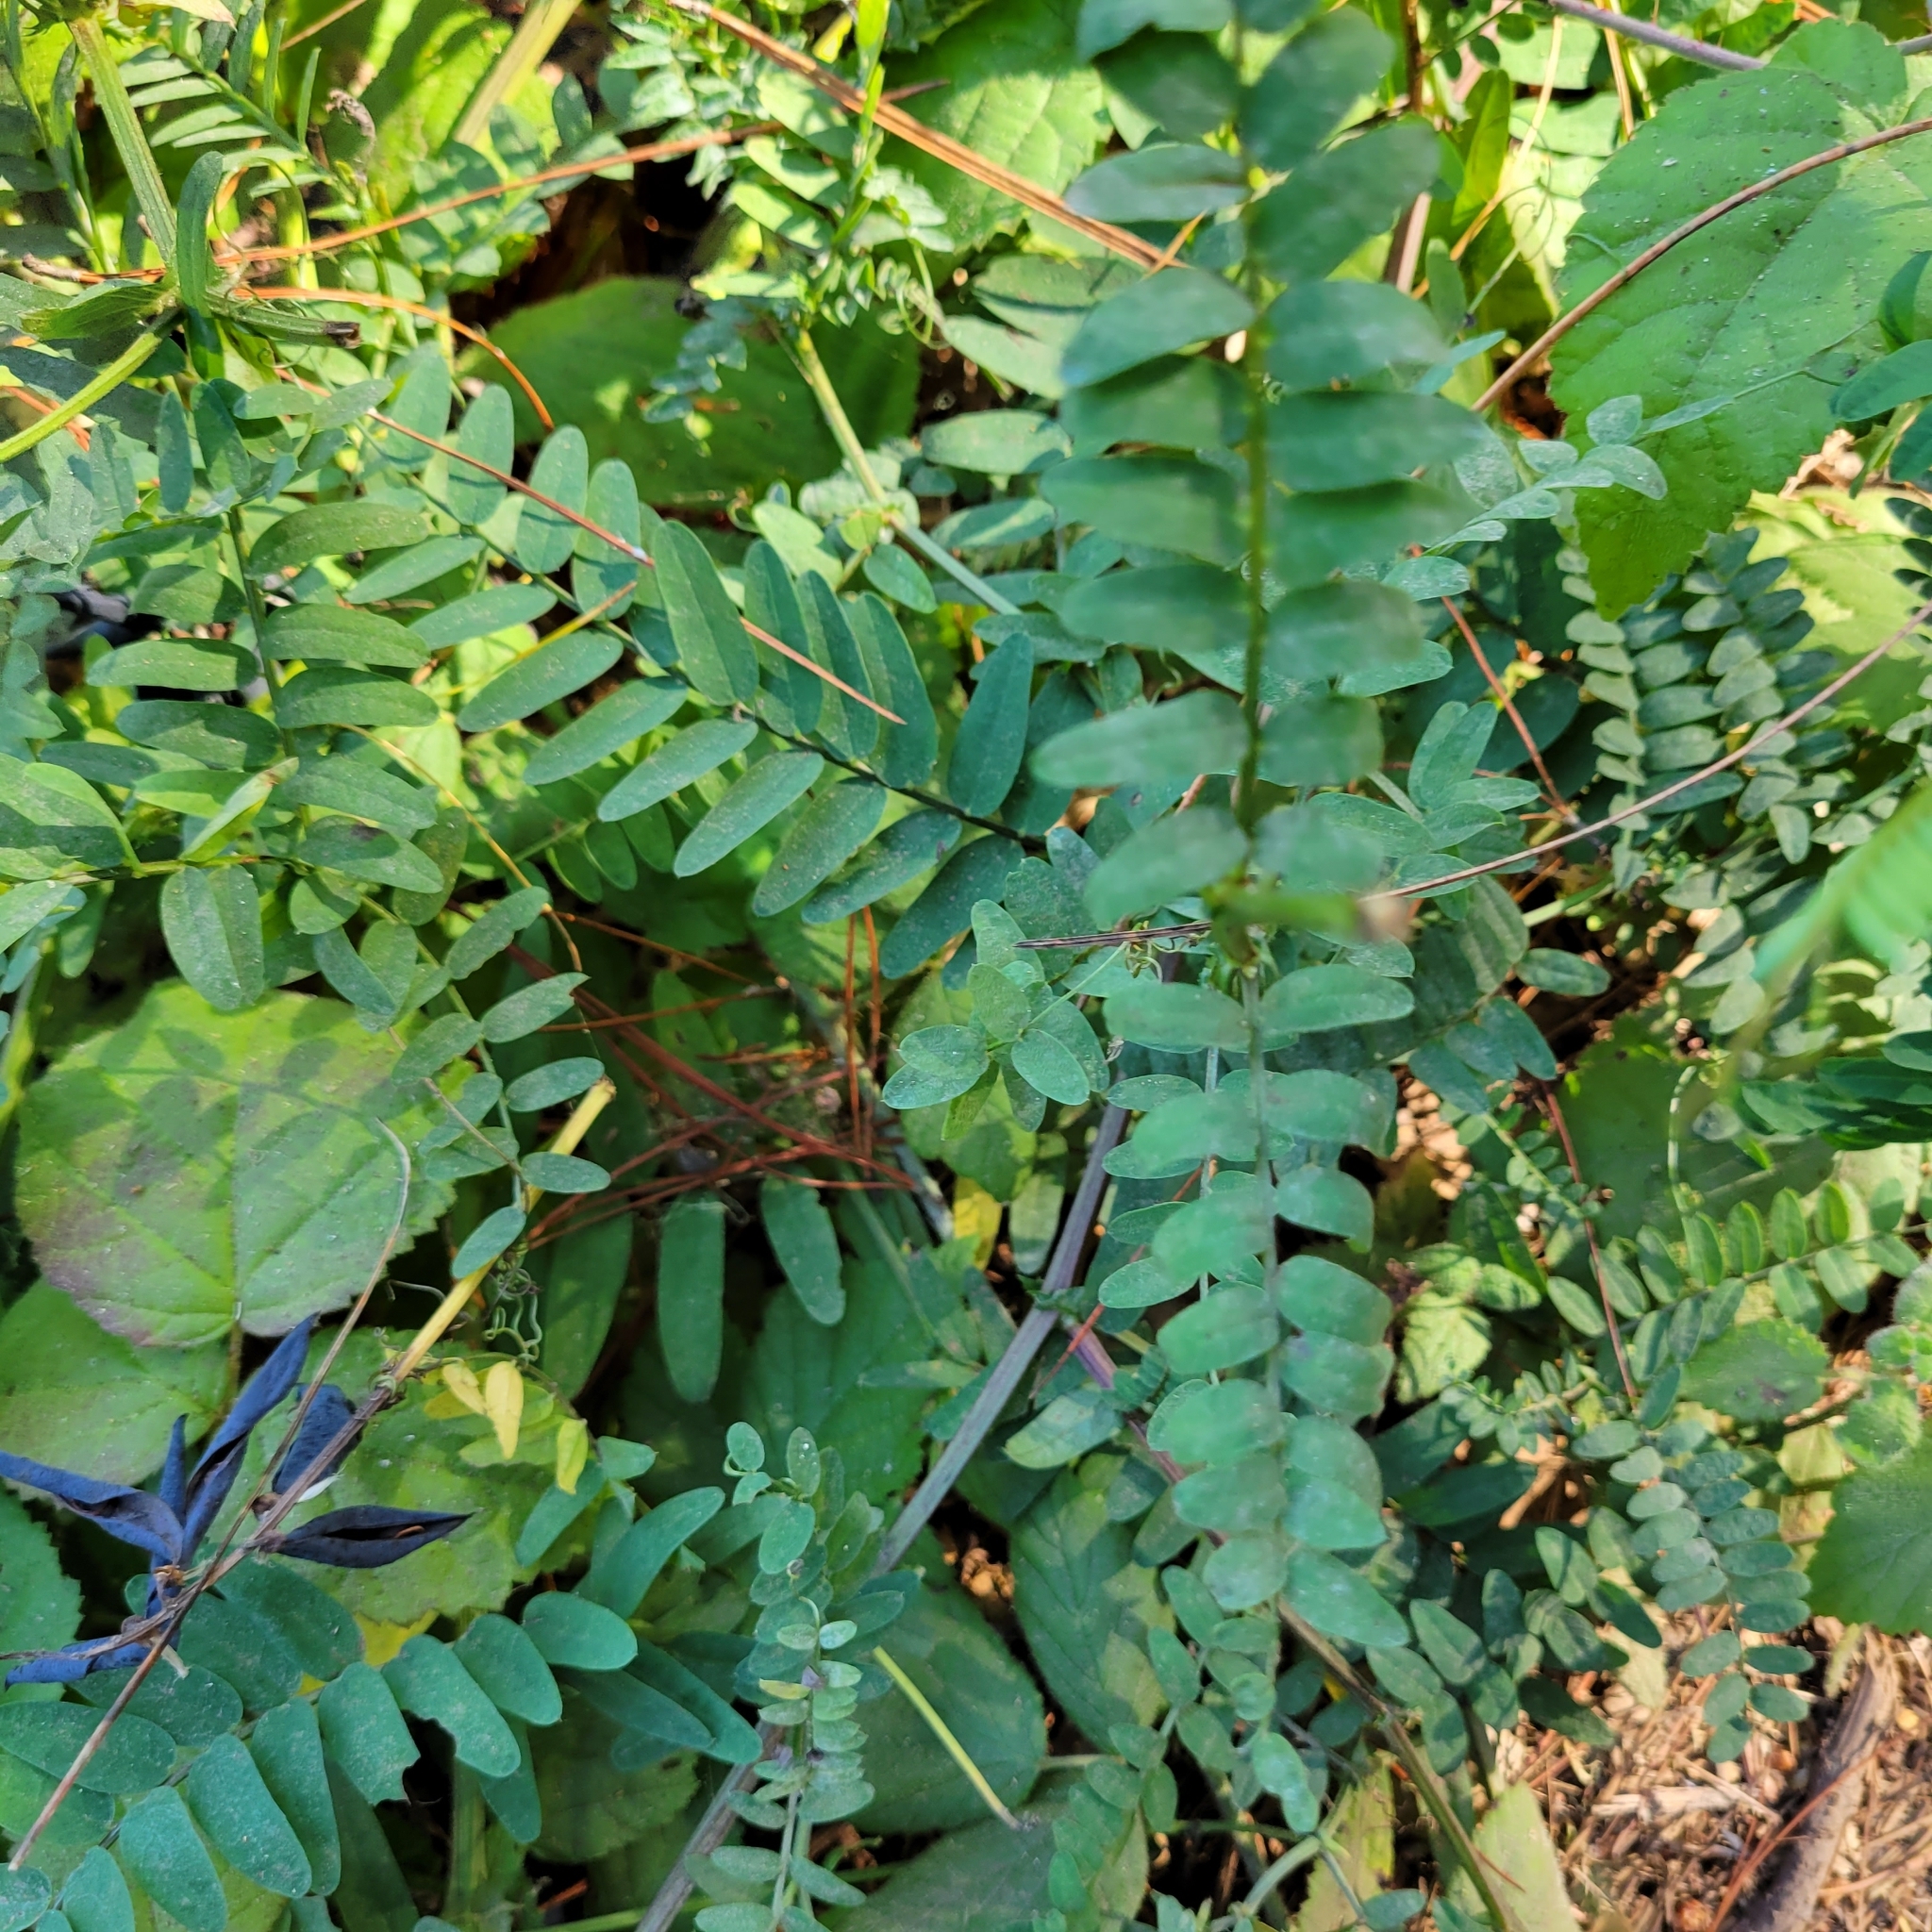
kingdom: Plantae
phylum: Tracheophyta
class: Magnoliopsida
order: Fabales
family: Fabaceae
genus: Vicia
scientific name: Vicia
